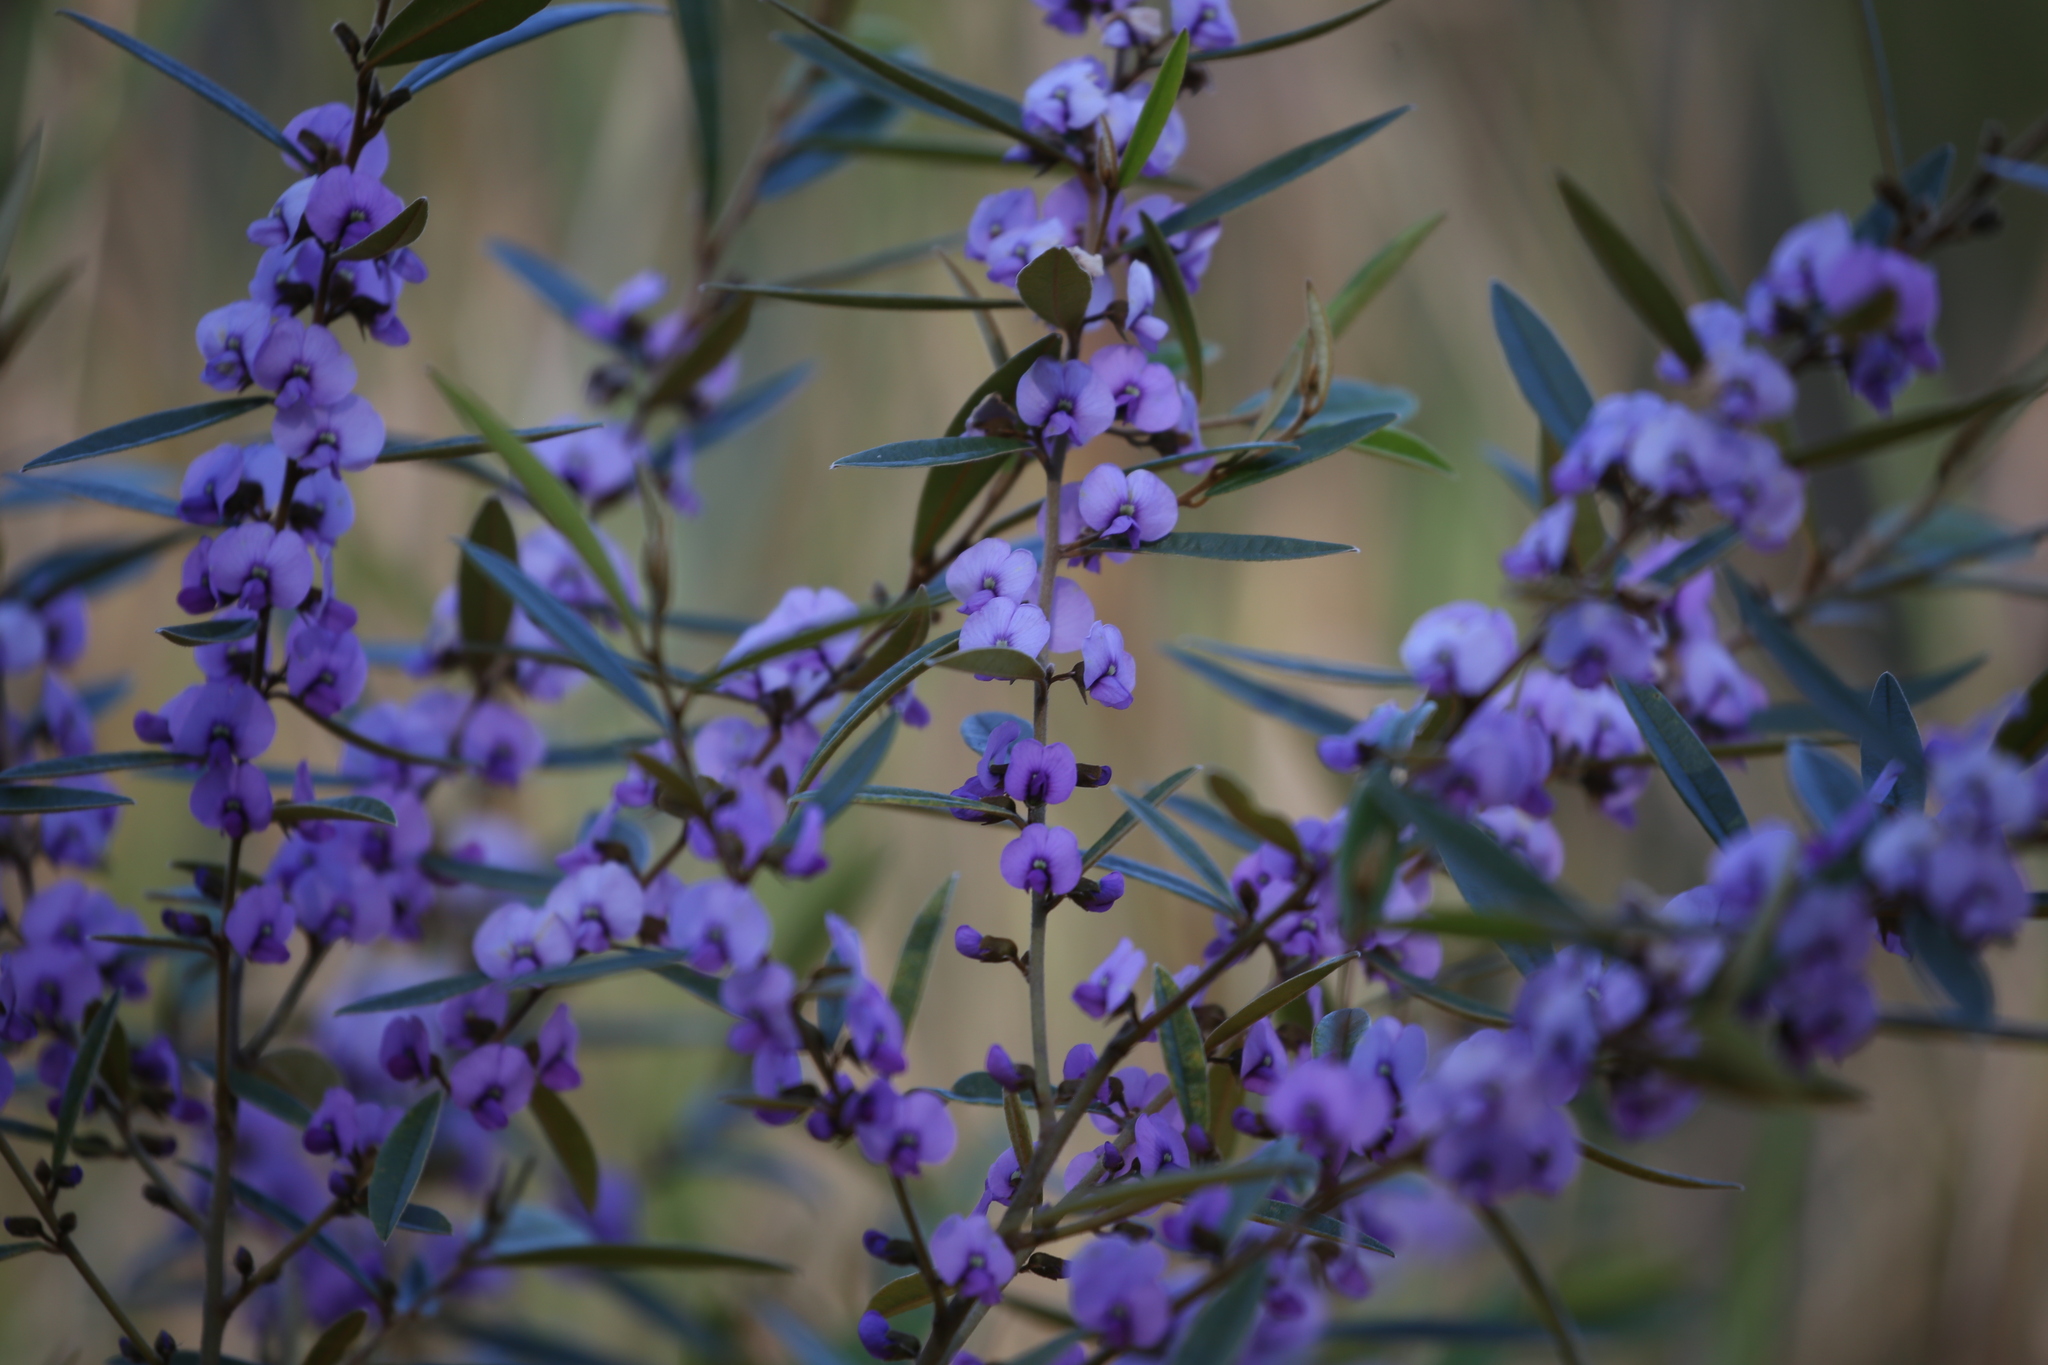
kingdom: Plantae
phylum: Tracheophyta
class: Magnoliopsida
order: Fabales
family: Fabaceae
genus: Hovea
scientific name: Hovea acutifolia
